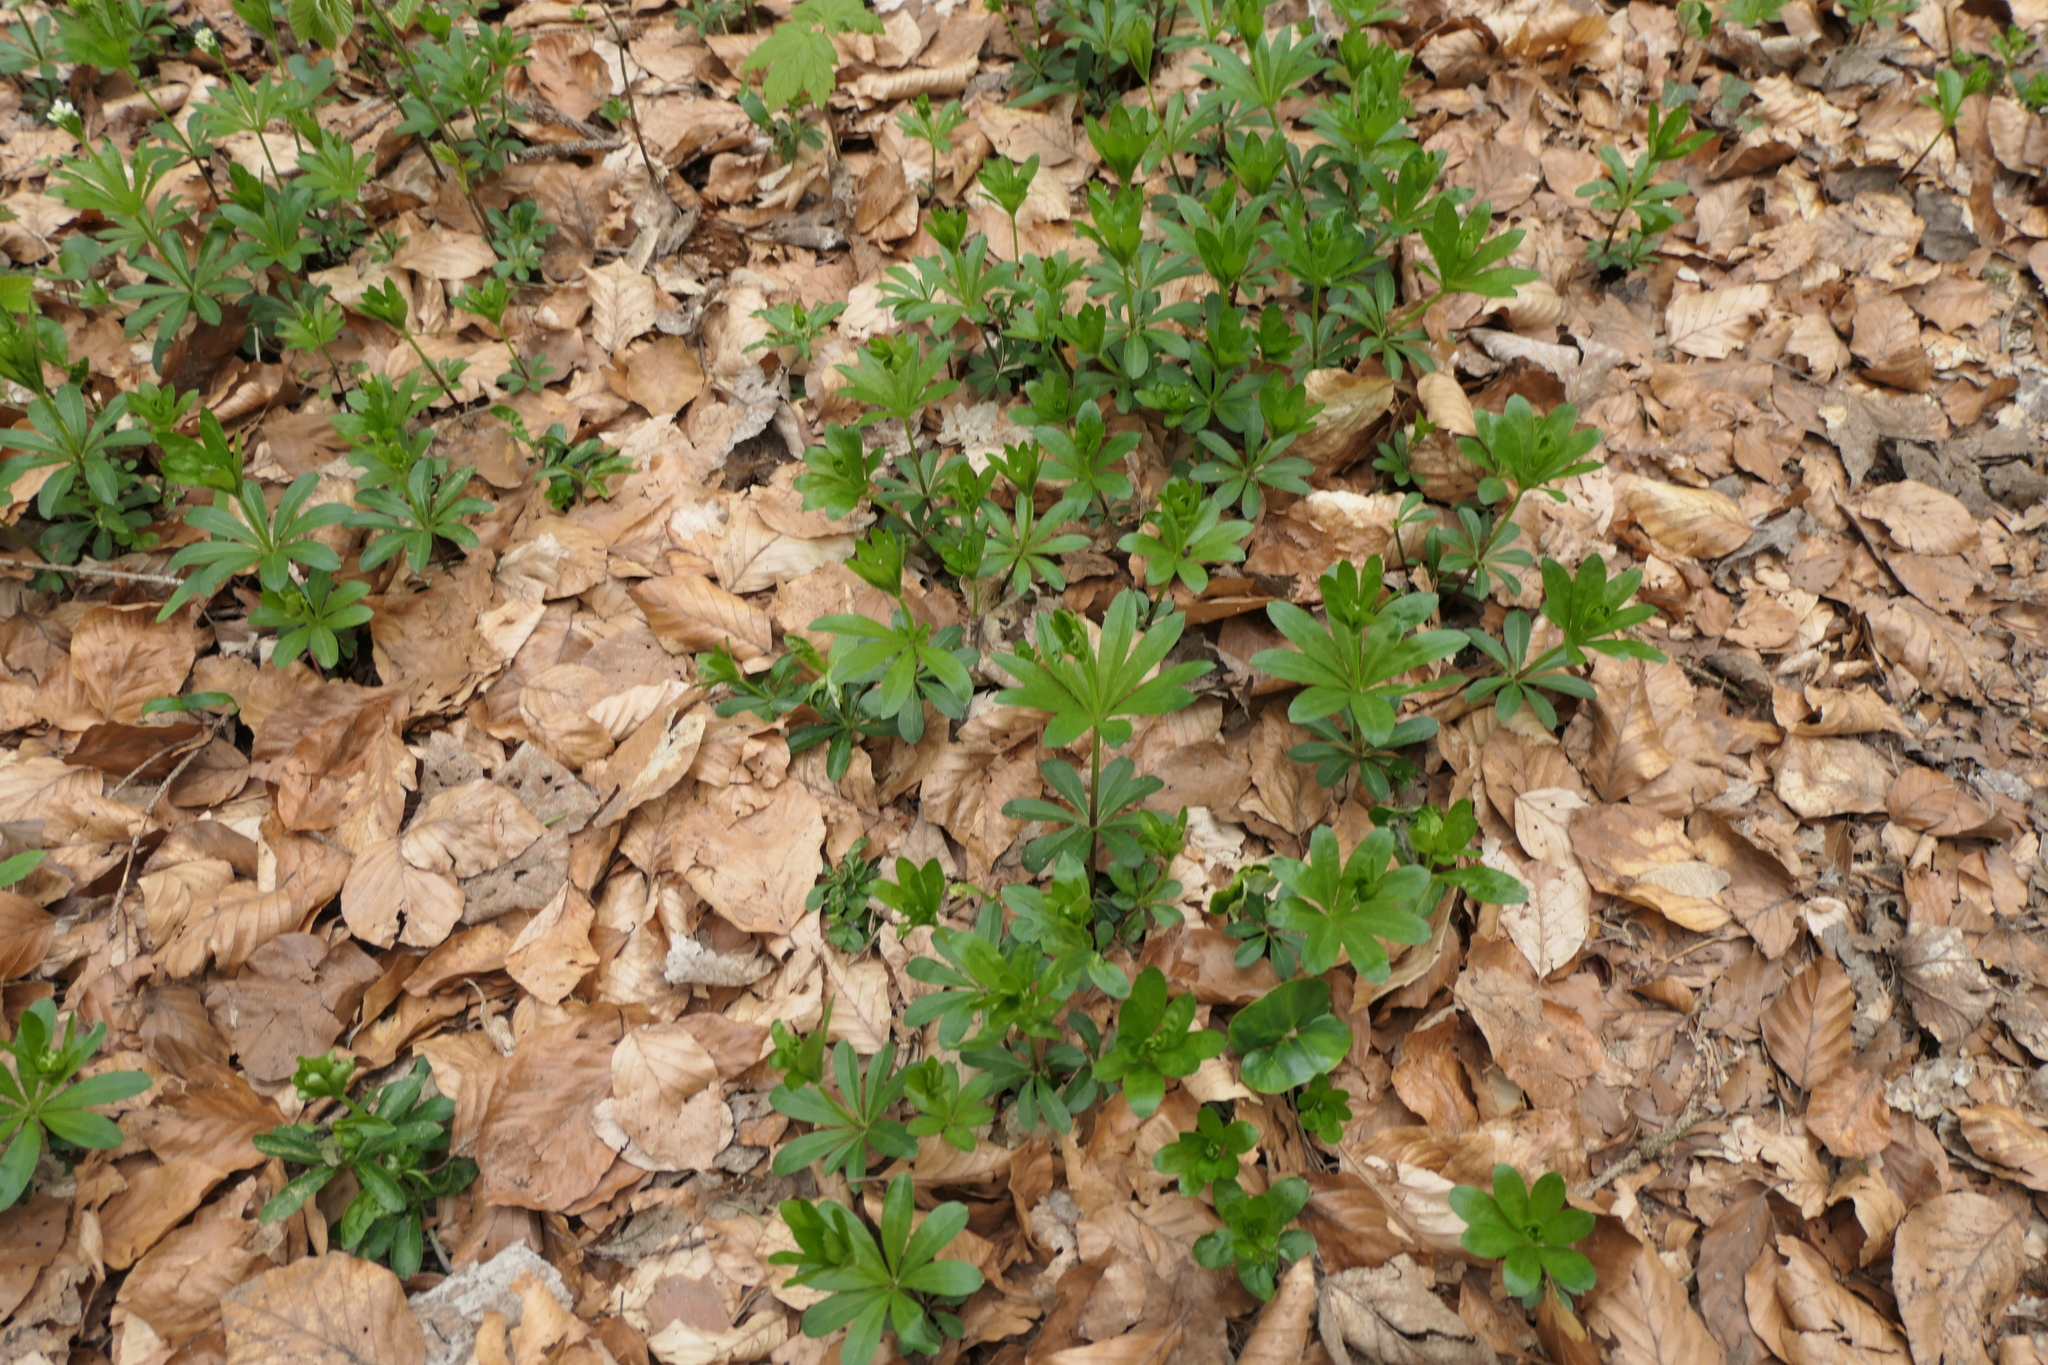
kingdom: Plantae
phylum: Tracheophyta
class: Magnoliopsida
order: Gentianales
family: Rubiaceae
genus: Galium
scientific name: Galium odoratum
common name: Sweet woodruff
